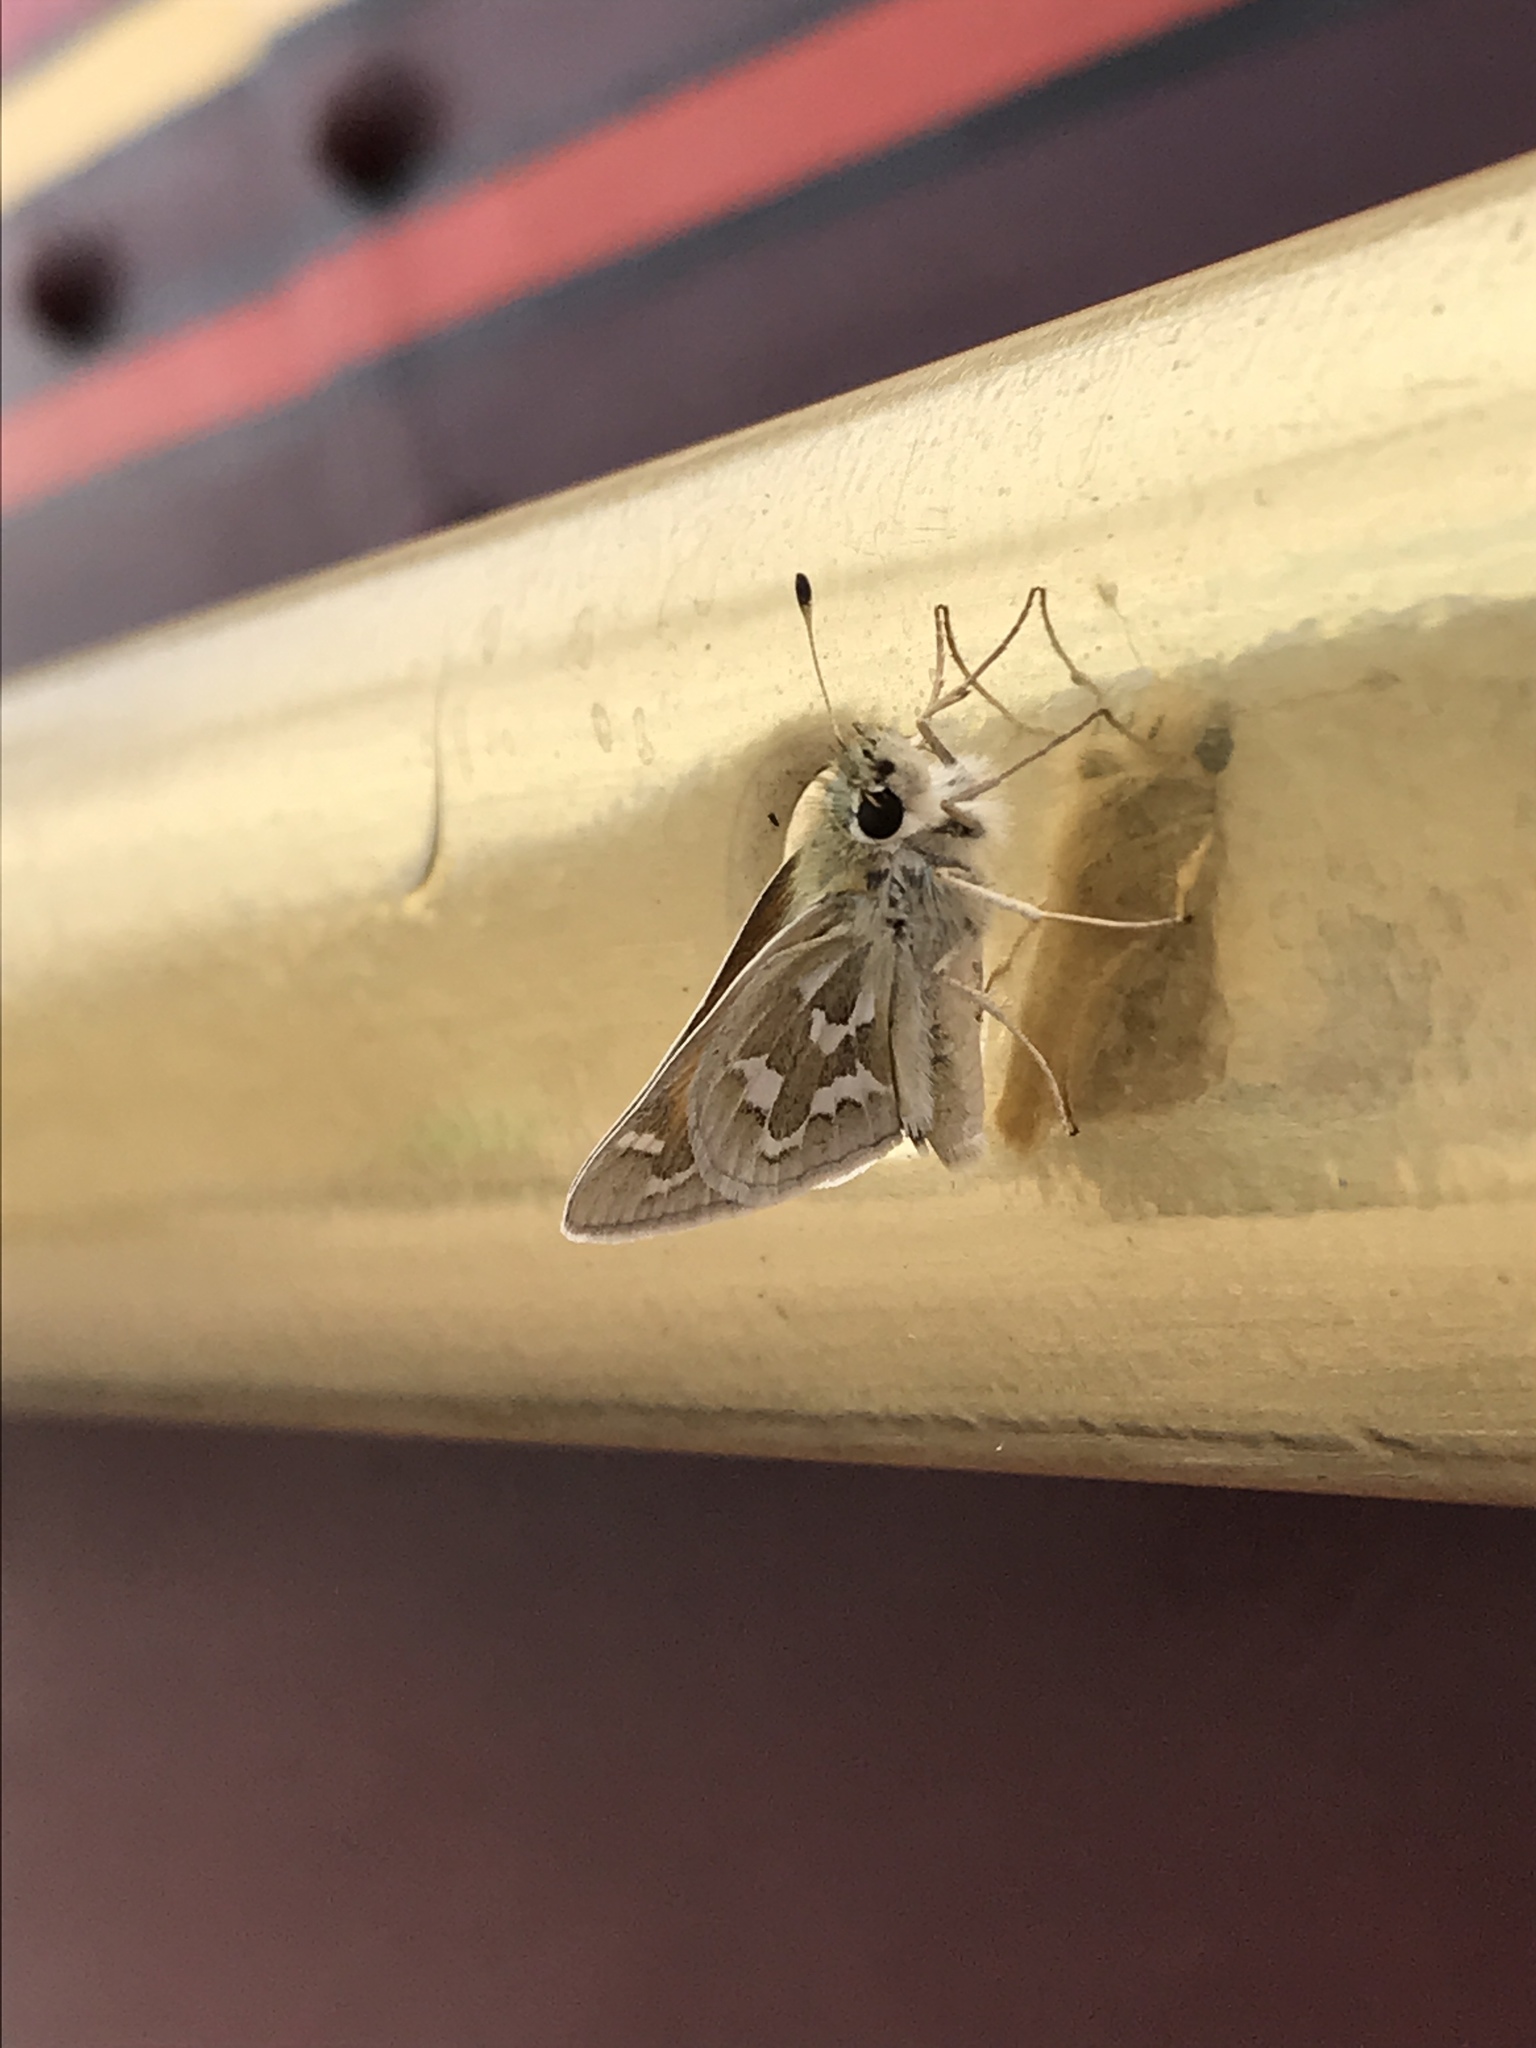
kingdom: Animalia
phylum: Arthropoda
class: Insecta
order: Lepidoptera
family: Hesperiidae
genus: Hesperia
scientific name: Hesperia comma
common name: Common branded skipper
